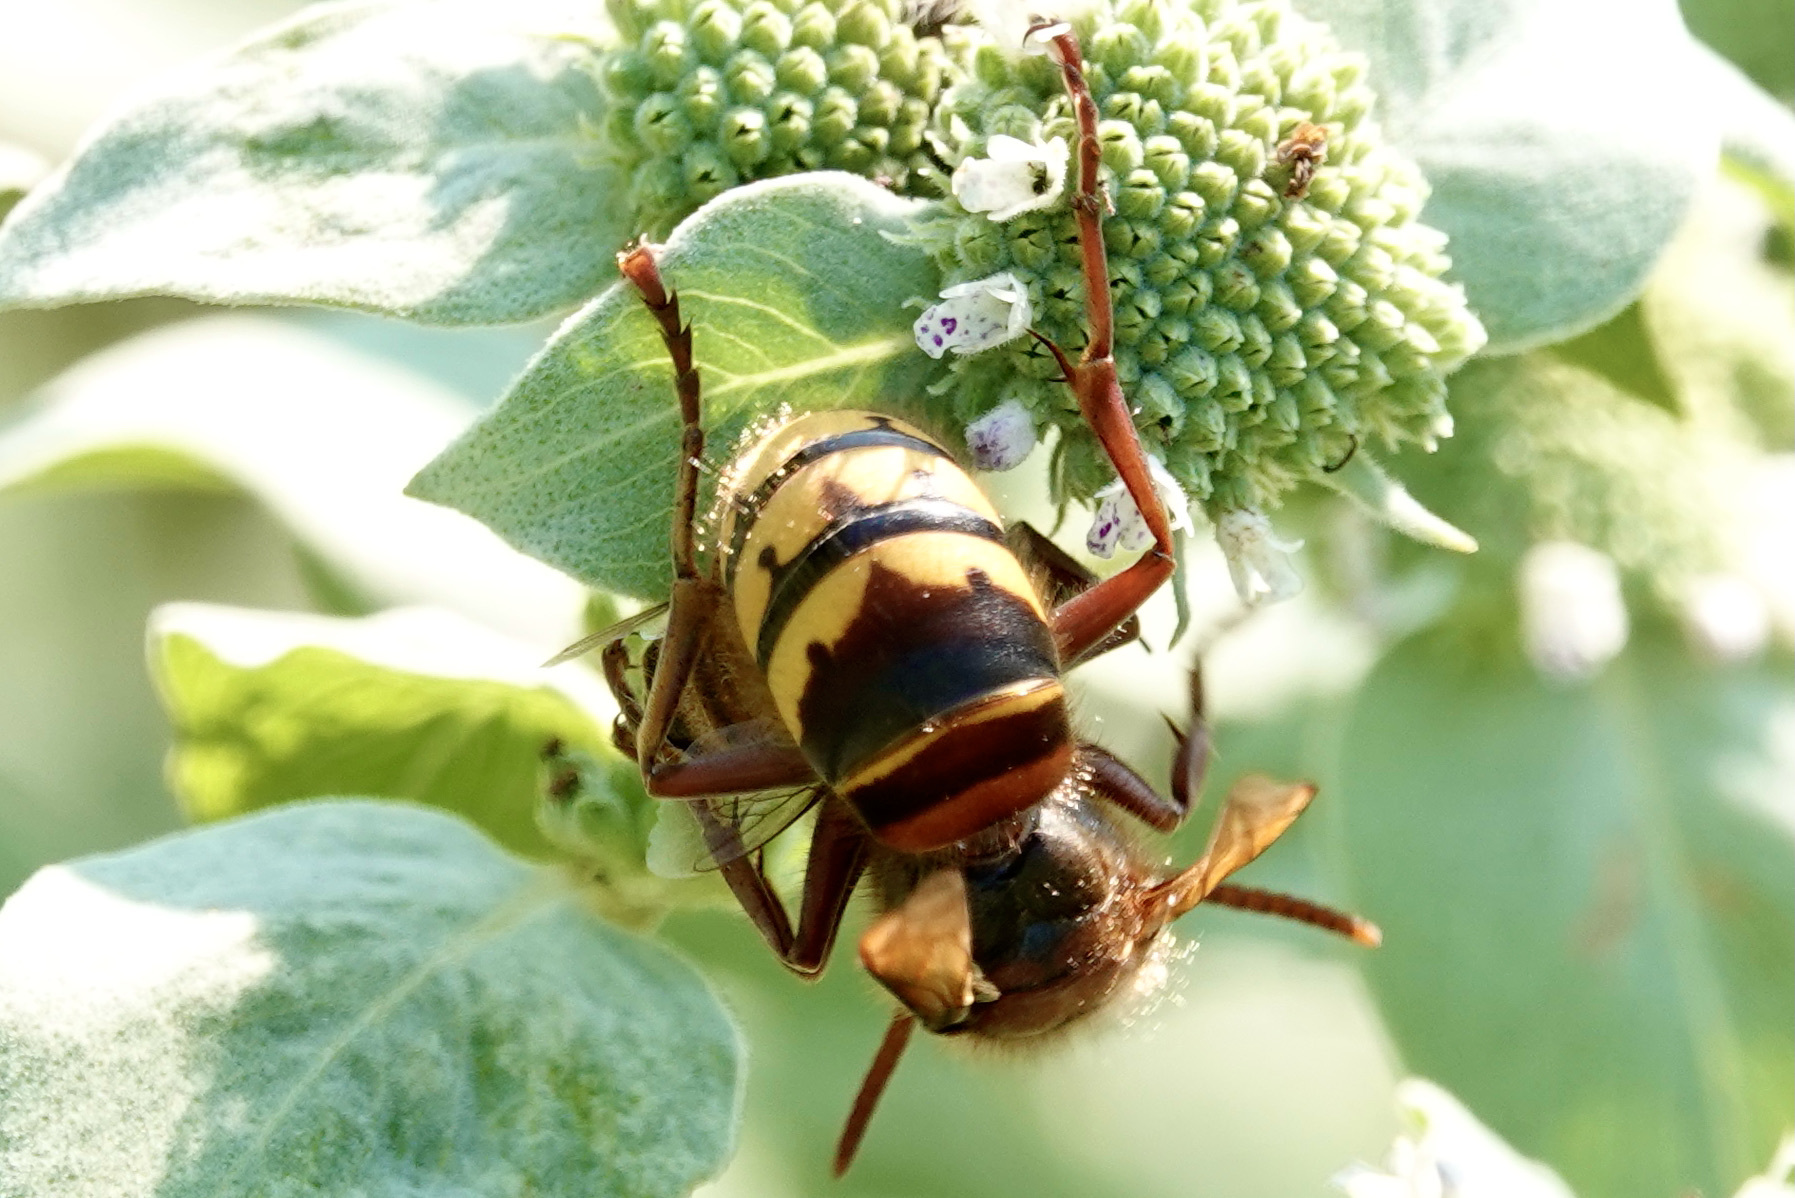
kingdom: Animalia
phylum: Arthropoda
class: Insecta
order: Hymenoptera
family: Vespidae
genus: Vespa
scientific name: Vespa crabro
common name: Hornet
